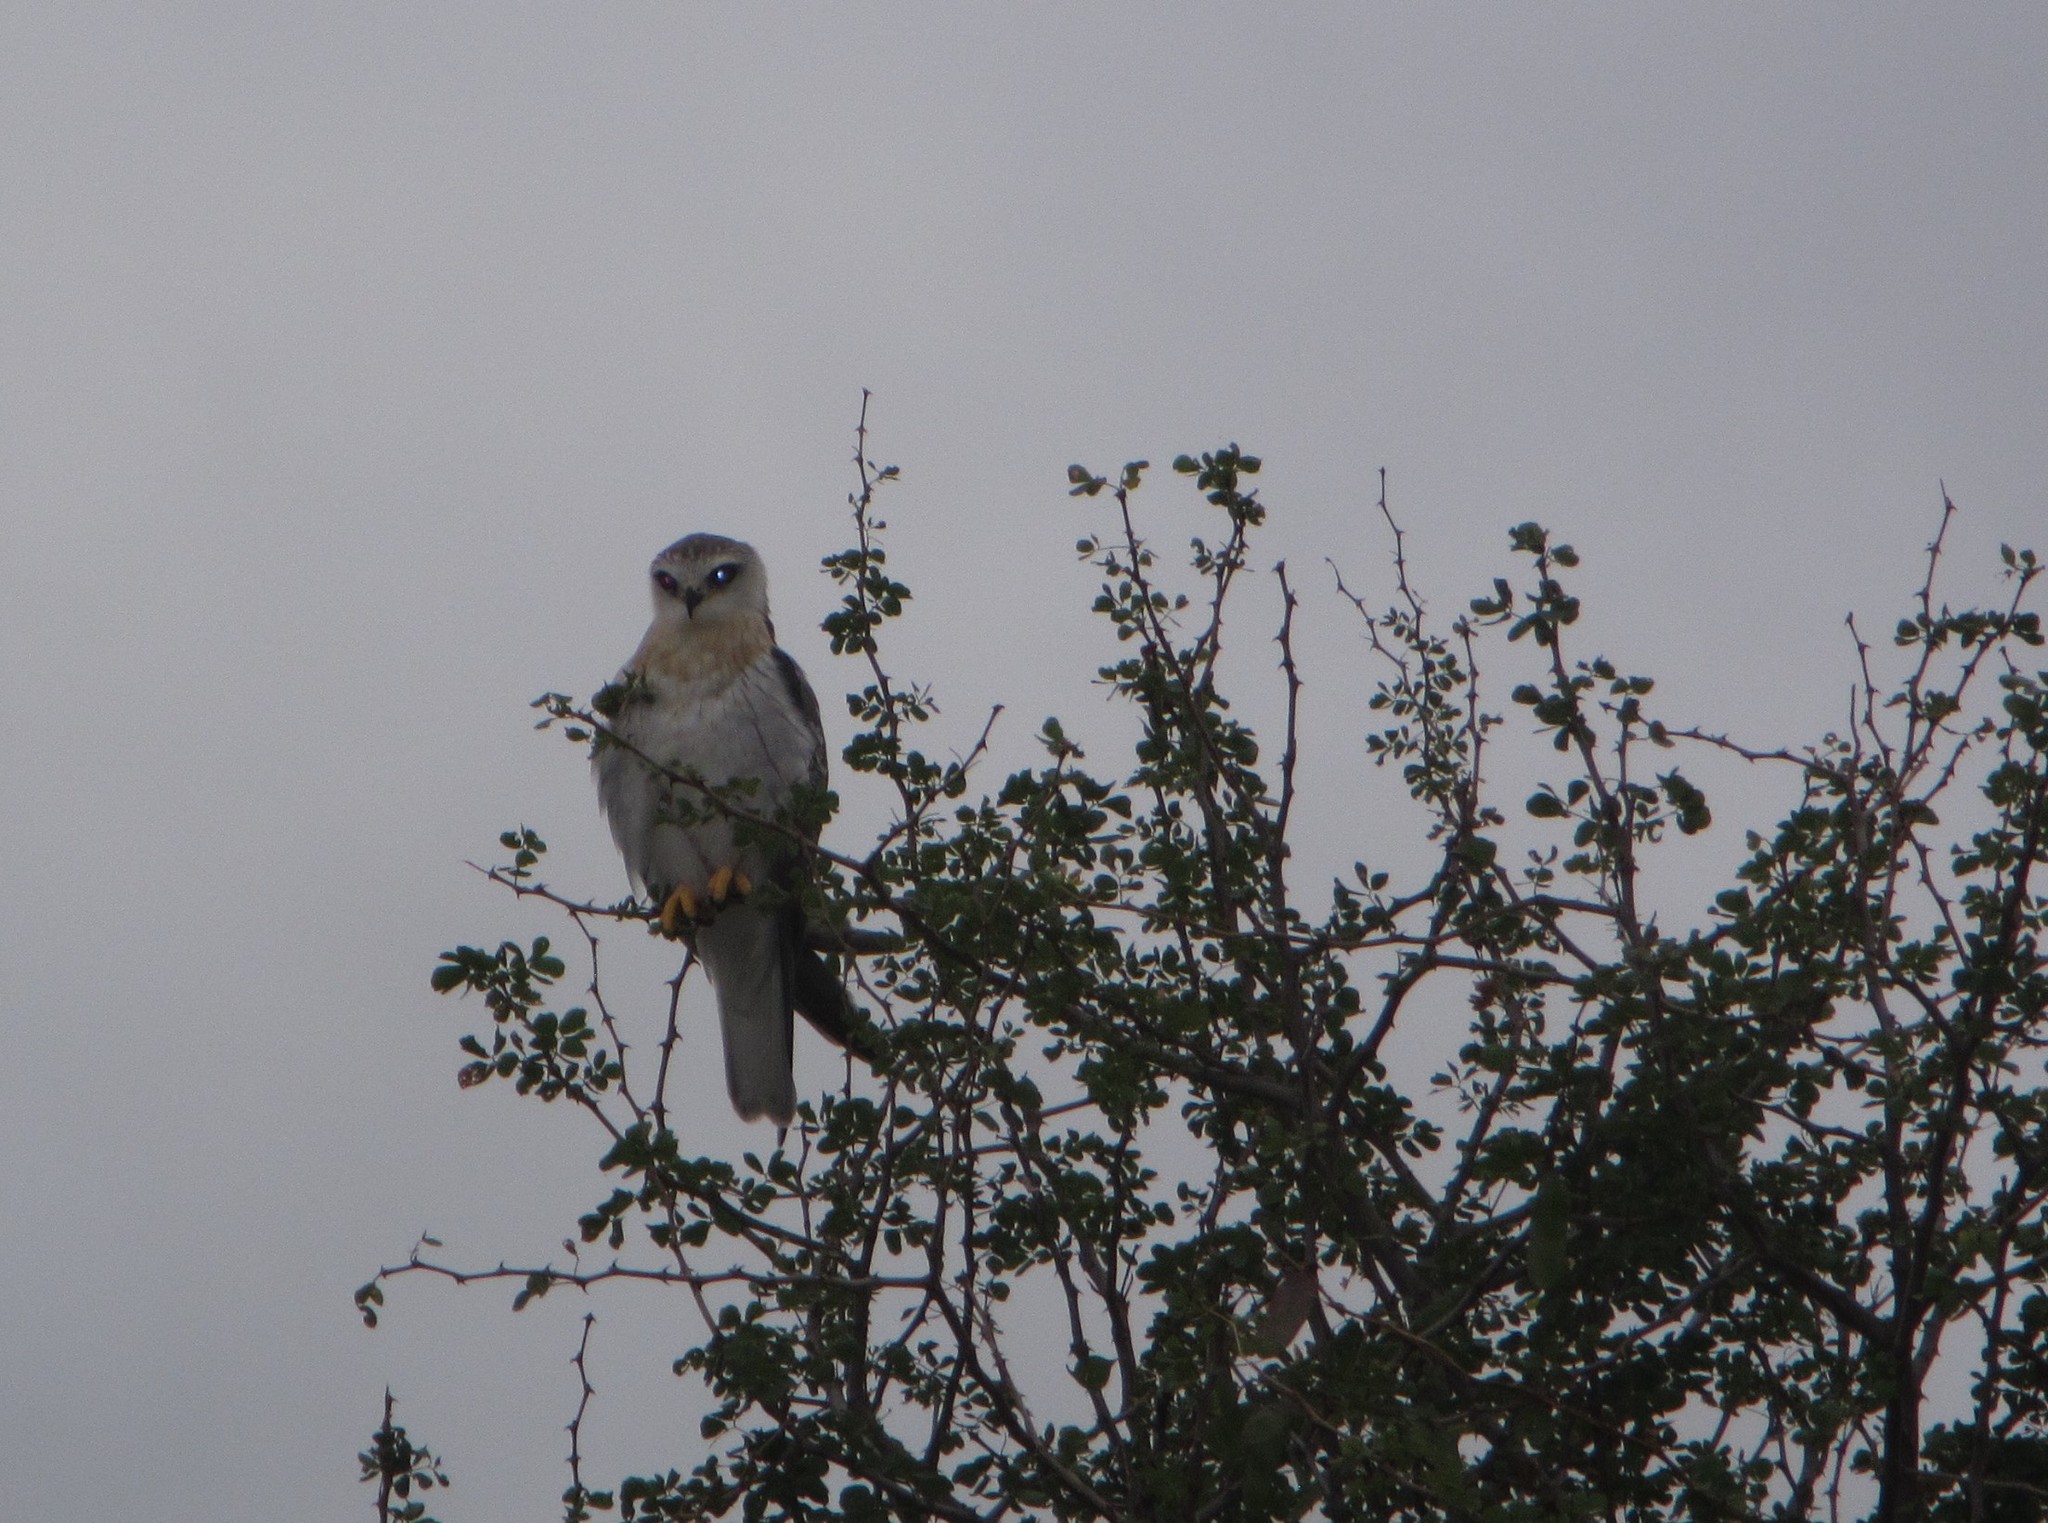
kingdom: Animalia
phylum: Chordata
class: Aves
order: Accipitriformes
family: Accipitridae
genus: Elanus
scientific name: Elanus caeruleus
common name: Black-winged kite
